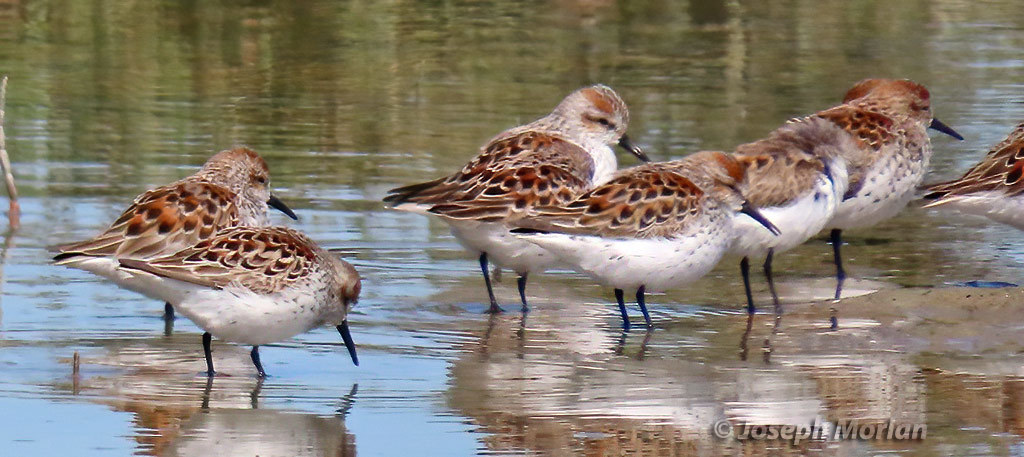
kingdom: Animalia
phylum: Chordata
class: Aves
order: Charadriiformes
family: Scolopacidae
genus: Calidris
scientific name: Calidris mauri
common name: Western sandpiper
